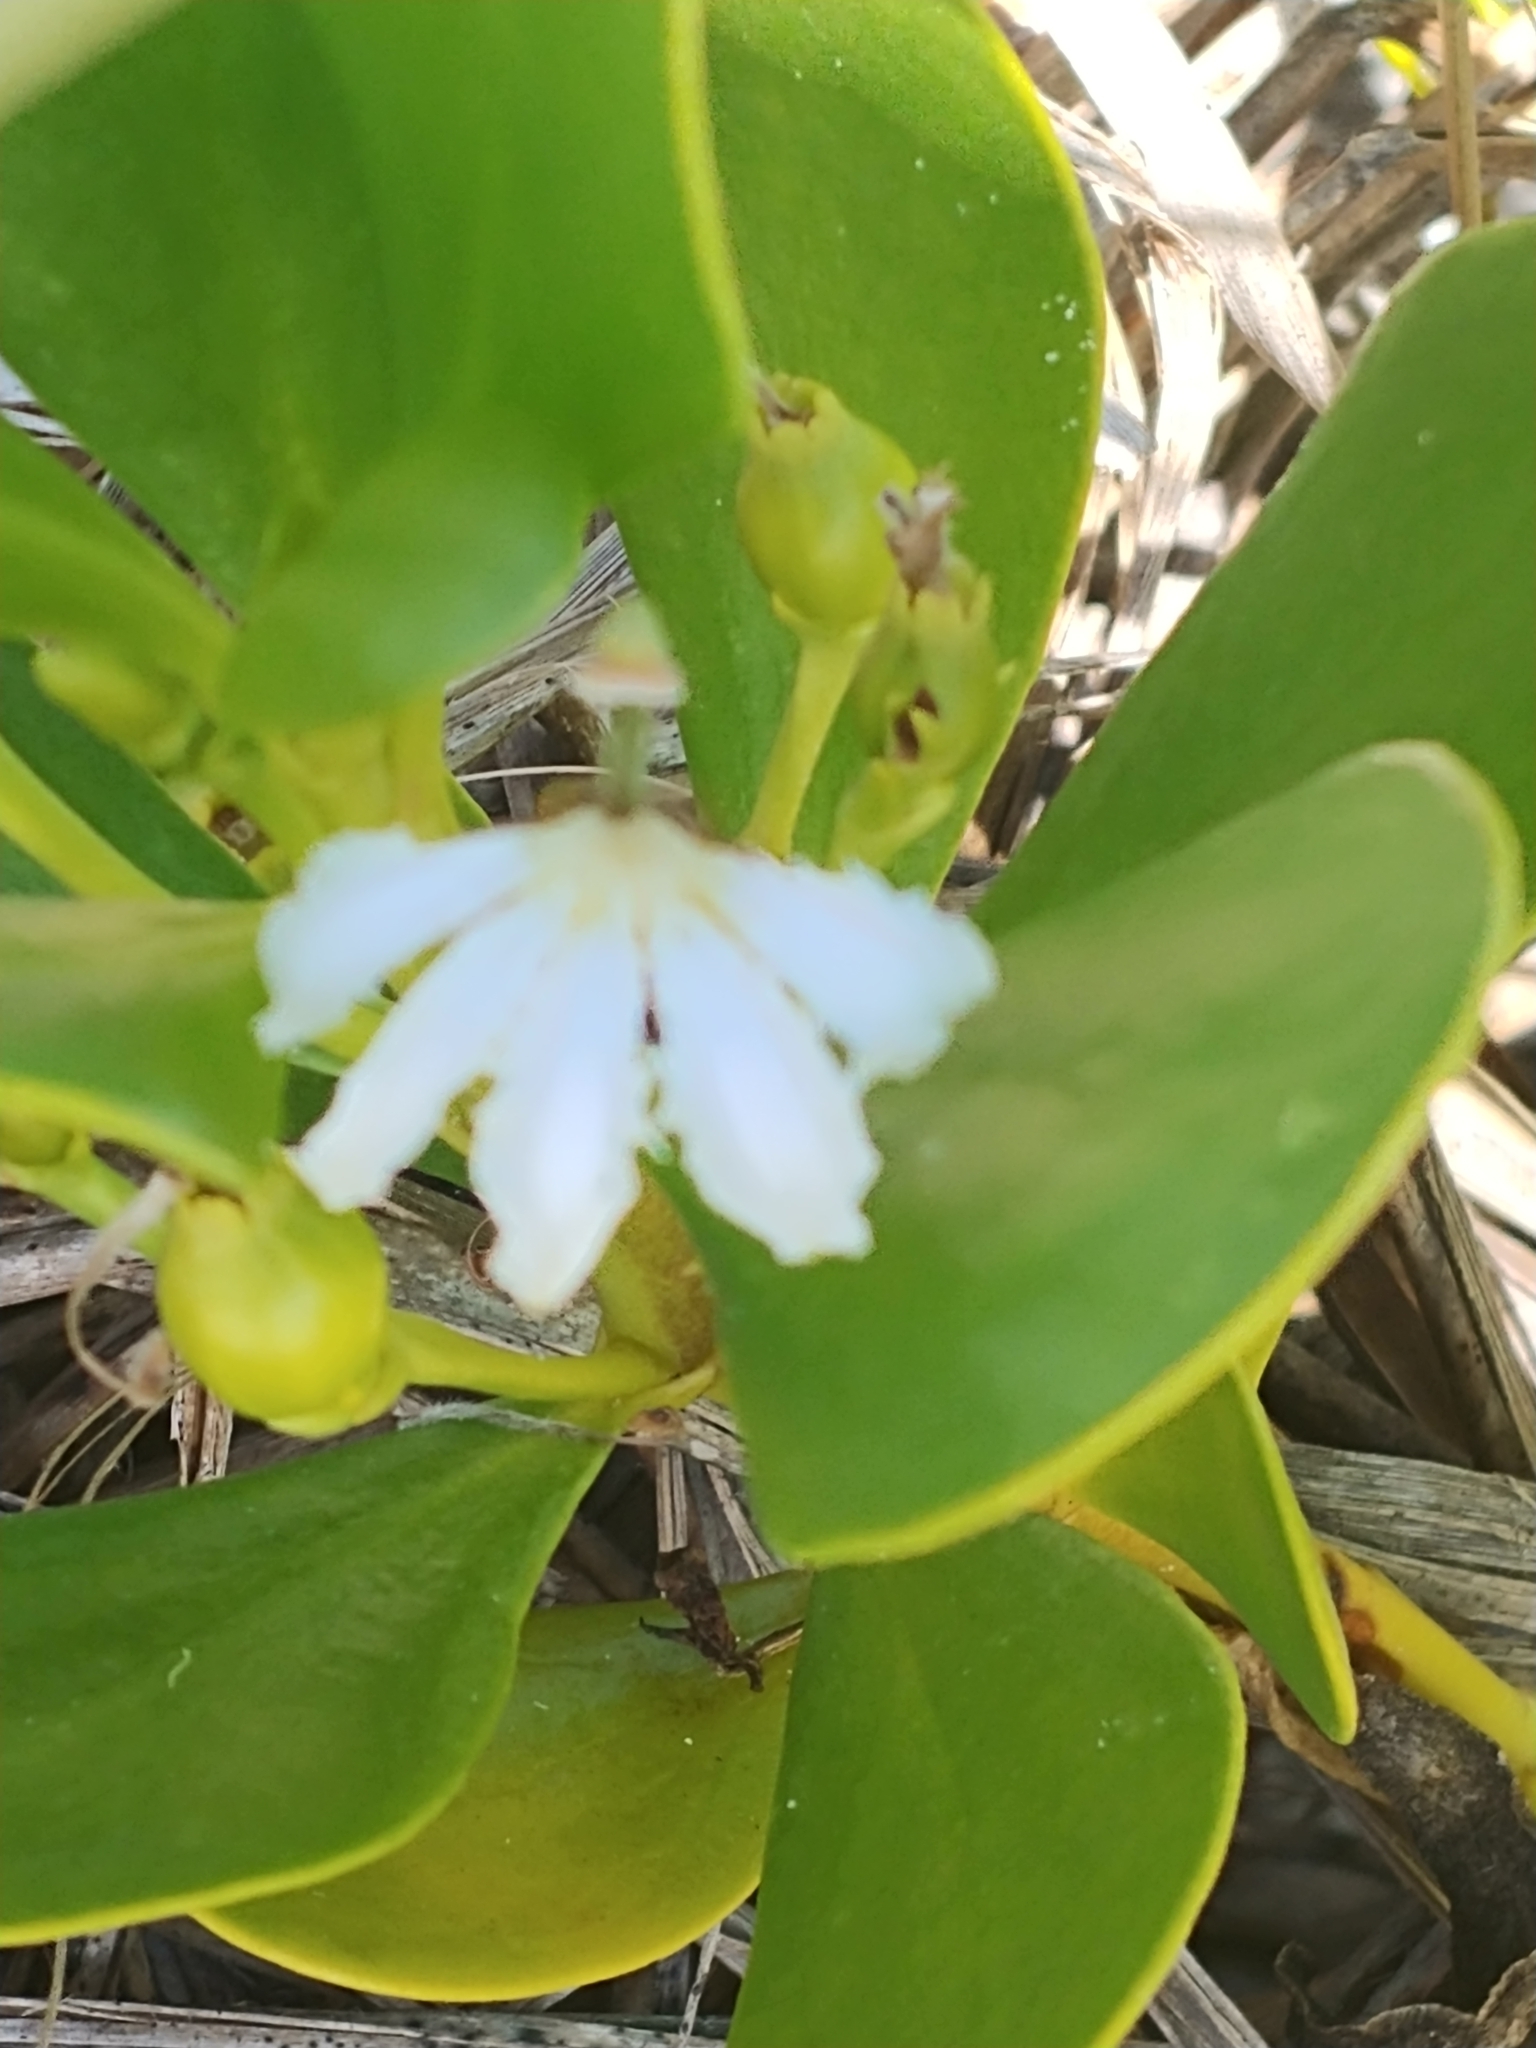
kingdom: Plantae
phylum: Tracheophyta
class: Magnoliopsida
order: Asterales
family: Goodeniaceae
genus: Scaevola
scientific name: Scaevola plumieri
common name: Gull feed
